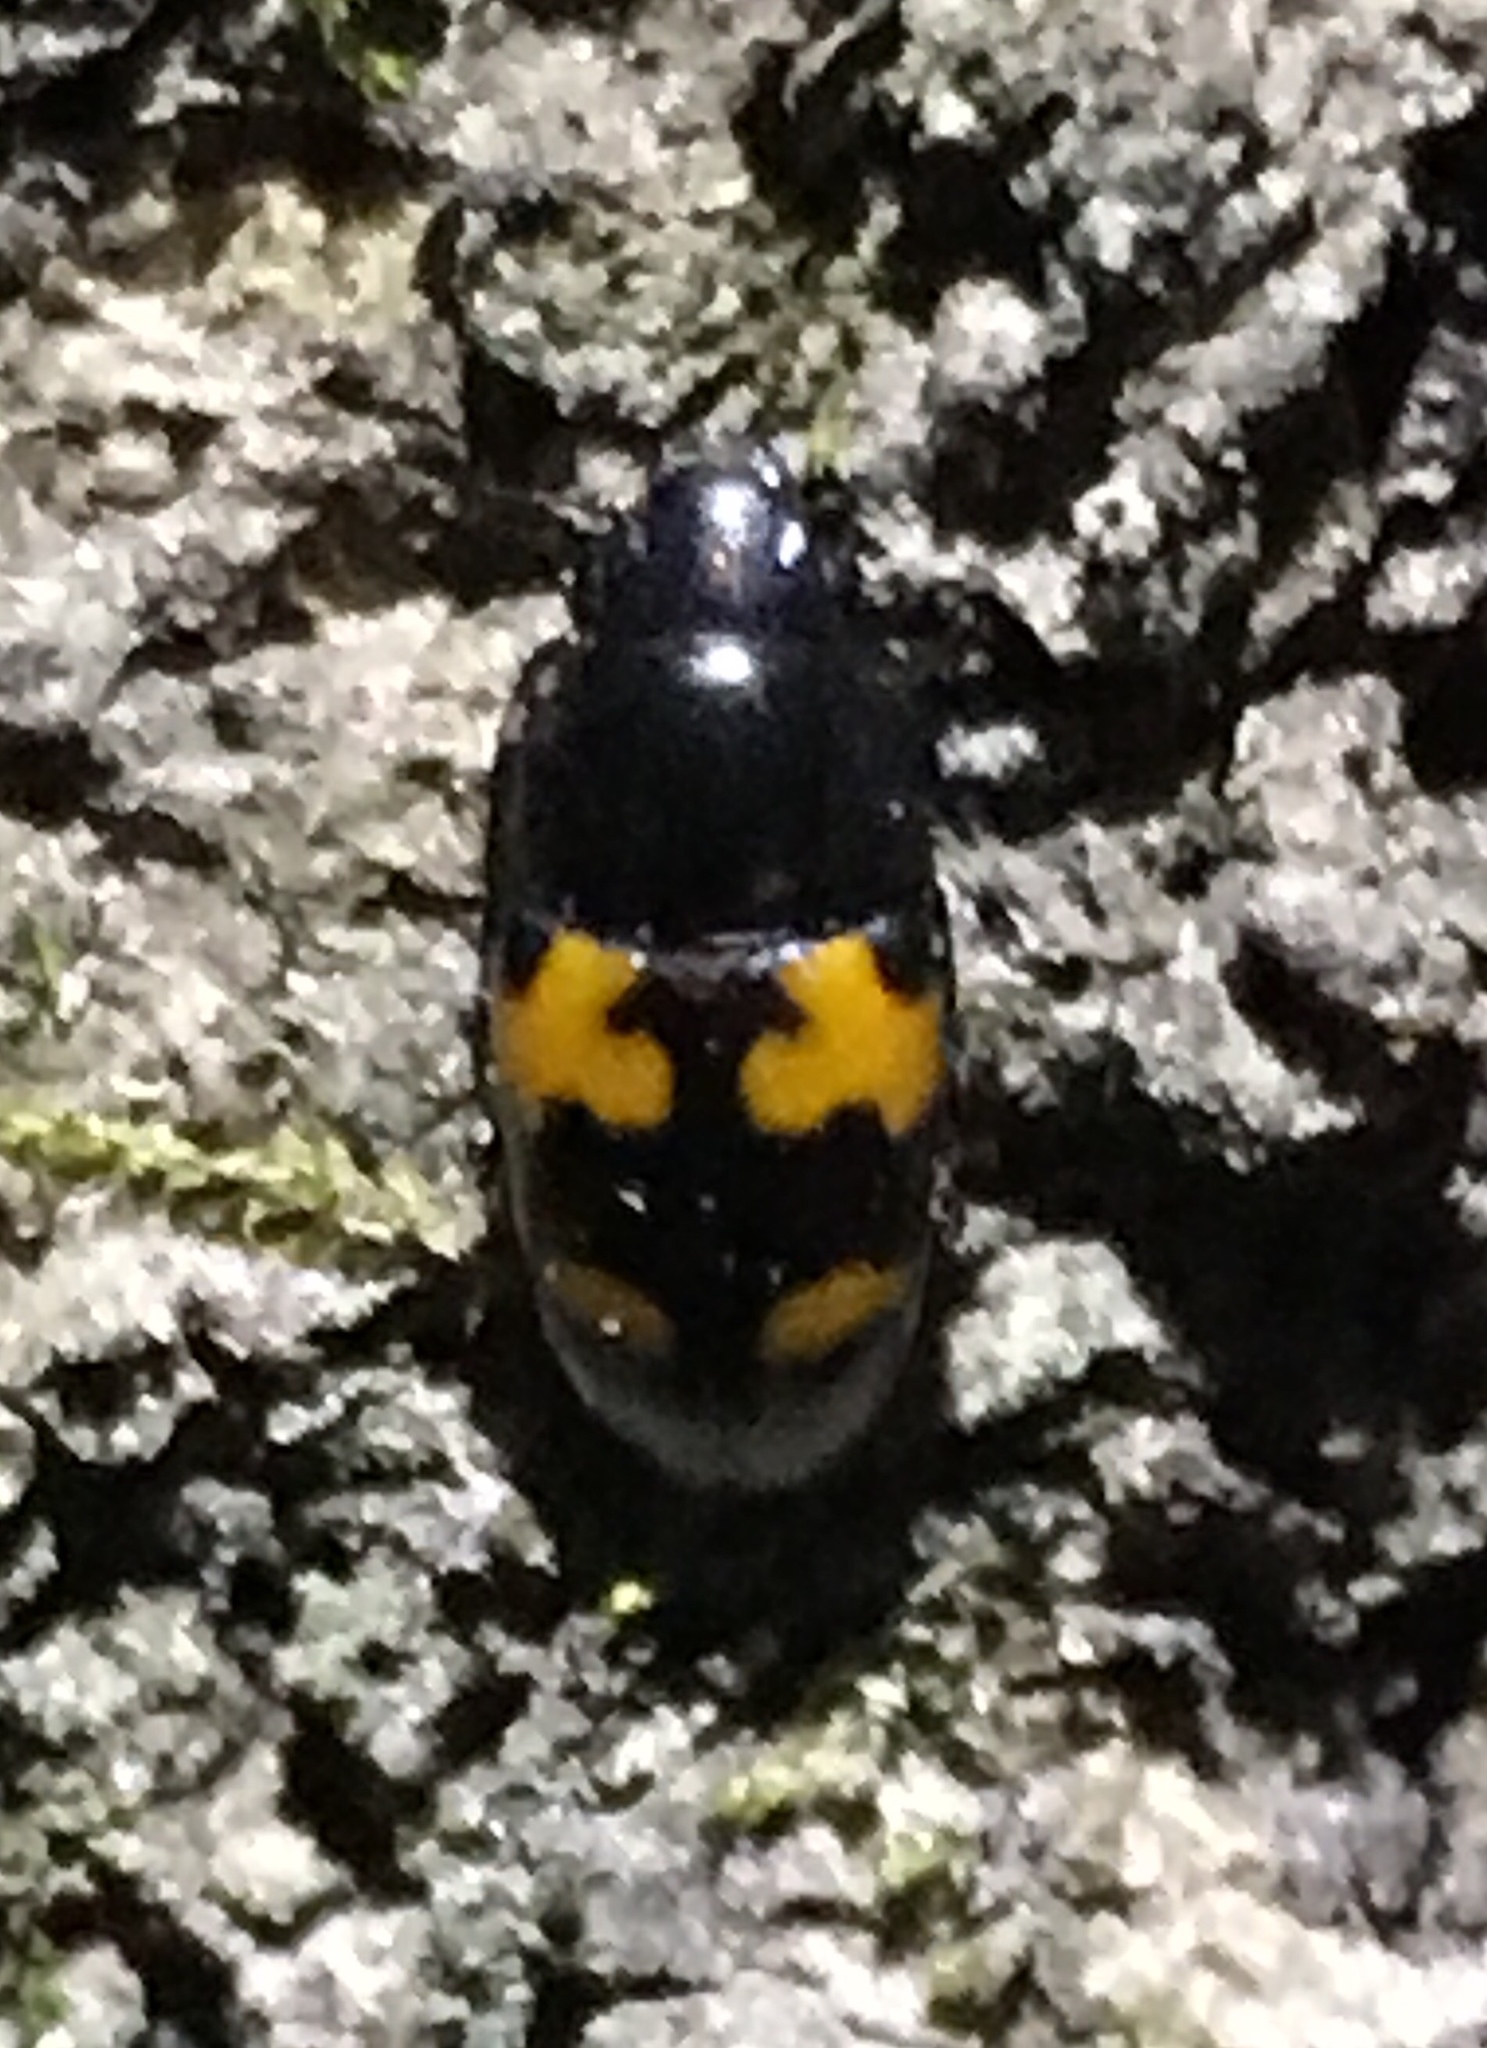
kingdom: Animalia
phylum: Arthropoda
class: Insecta
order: Coleoptera
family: Nitidulidae
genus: Glischrochilus
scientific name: Glischrochilus fasciatus
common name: Picnic beetle
